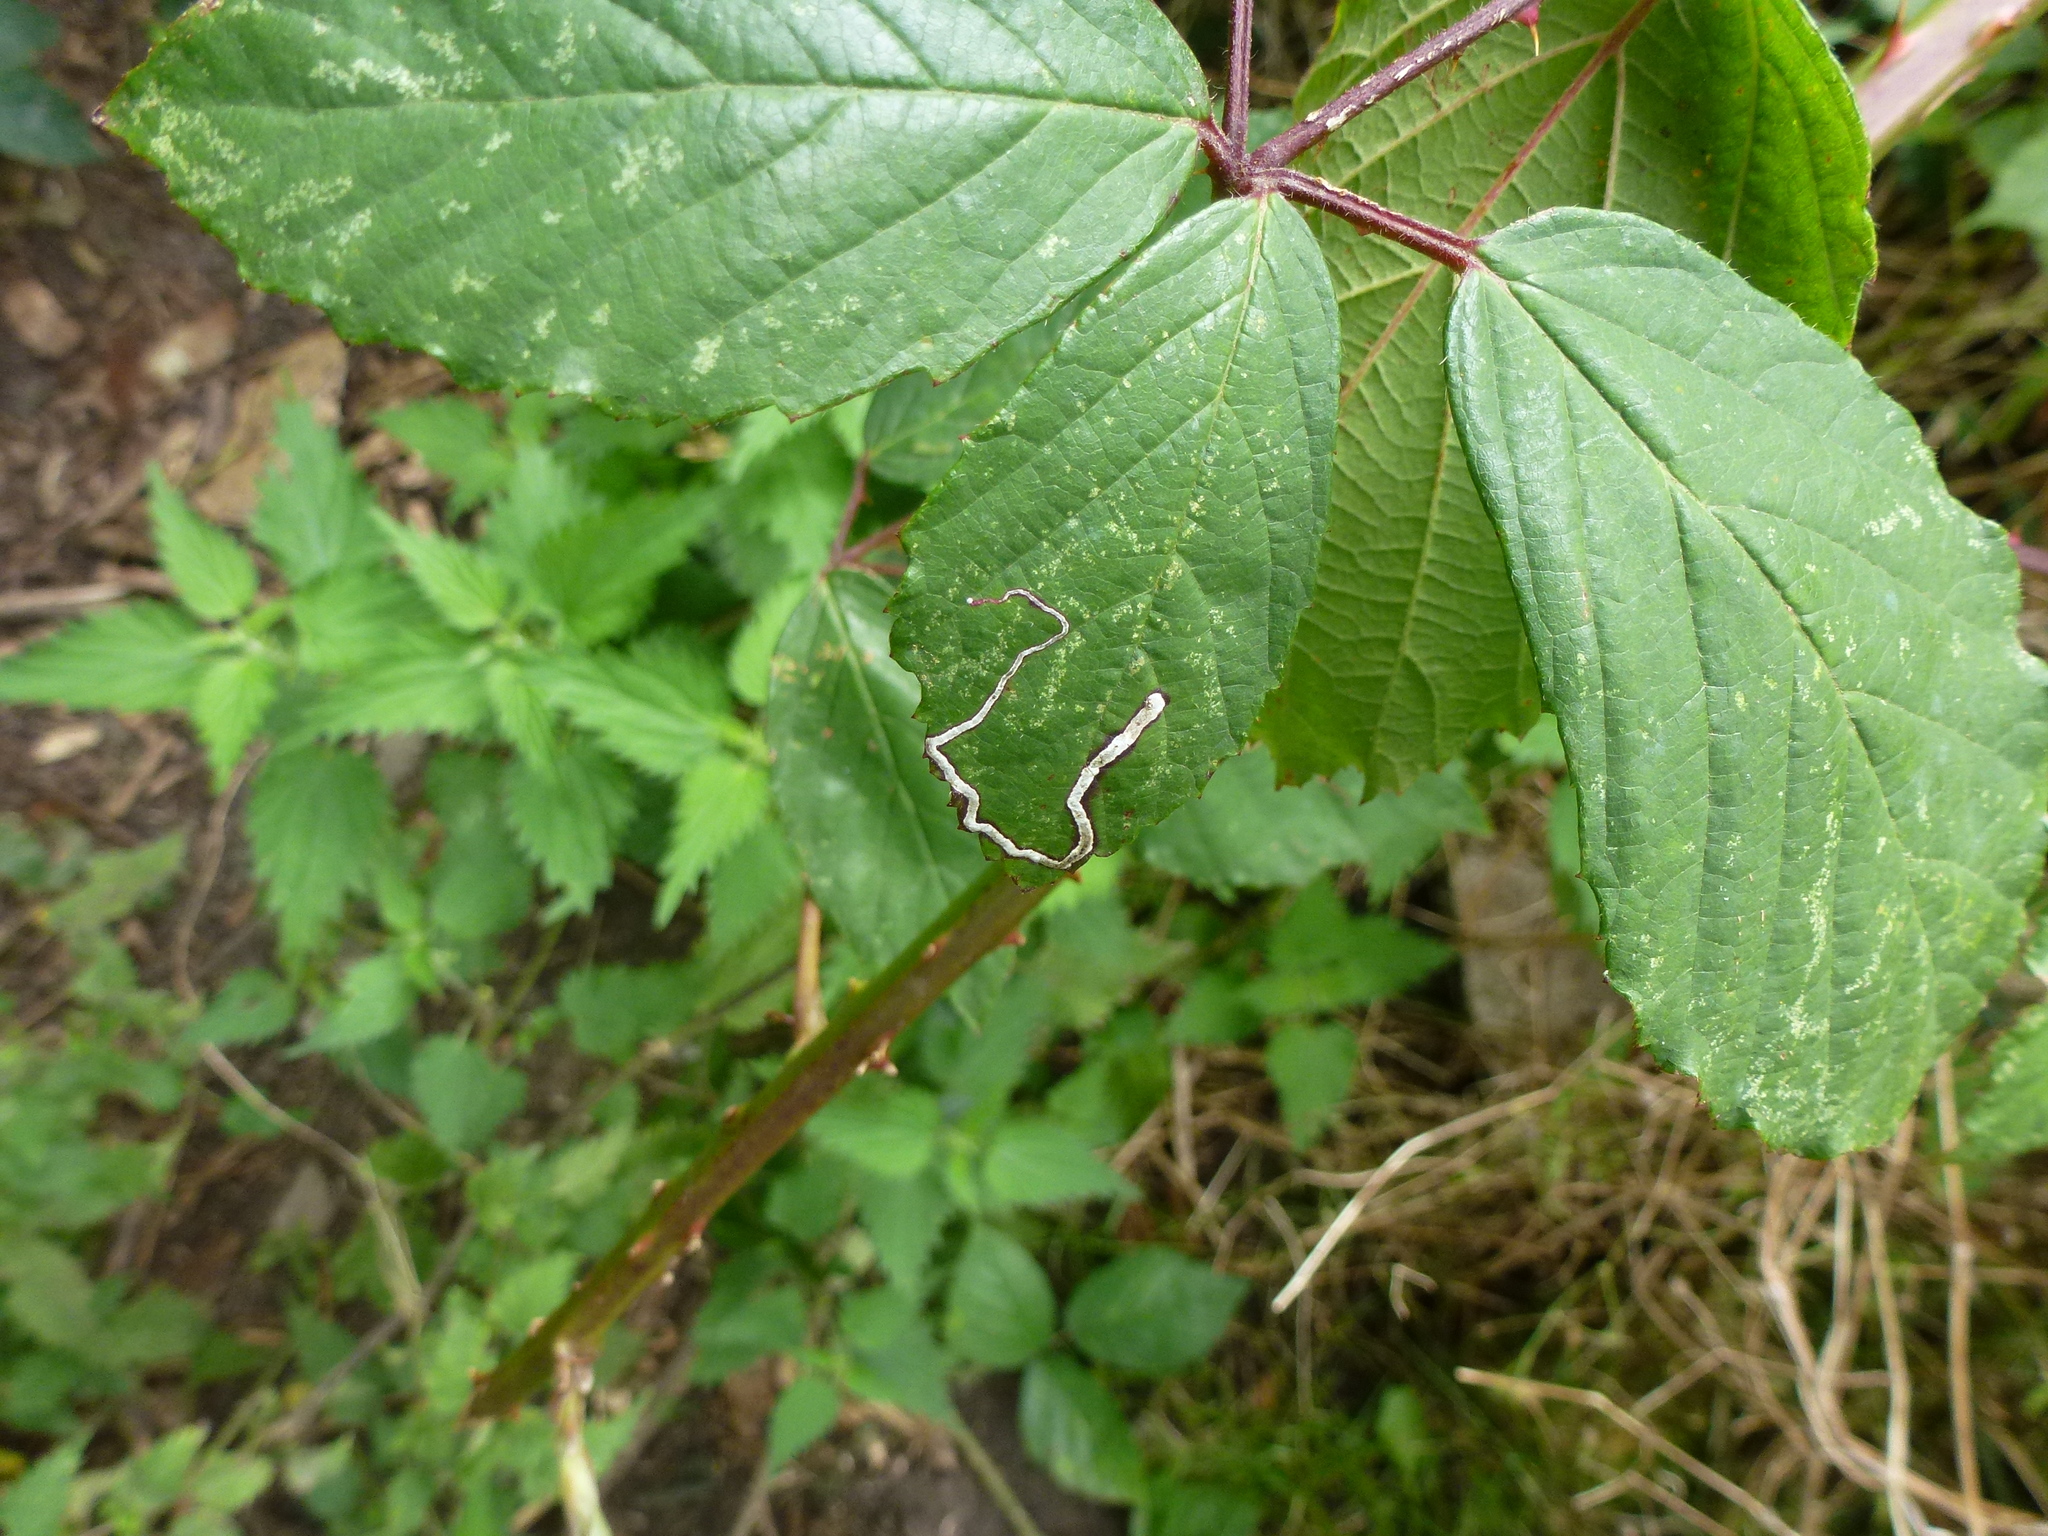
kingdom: Animalia
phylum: Arthropoda
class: Insecta
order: Lepidoptera
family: Nepticulidae
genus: Stigmella
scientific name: Stigmella aurella
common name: Golden pigmy
